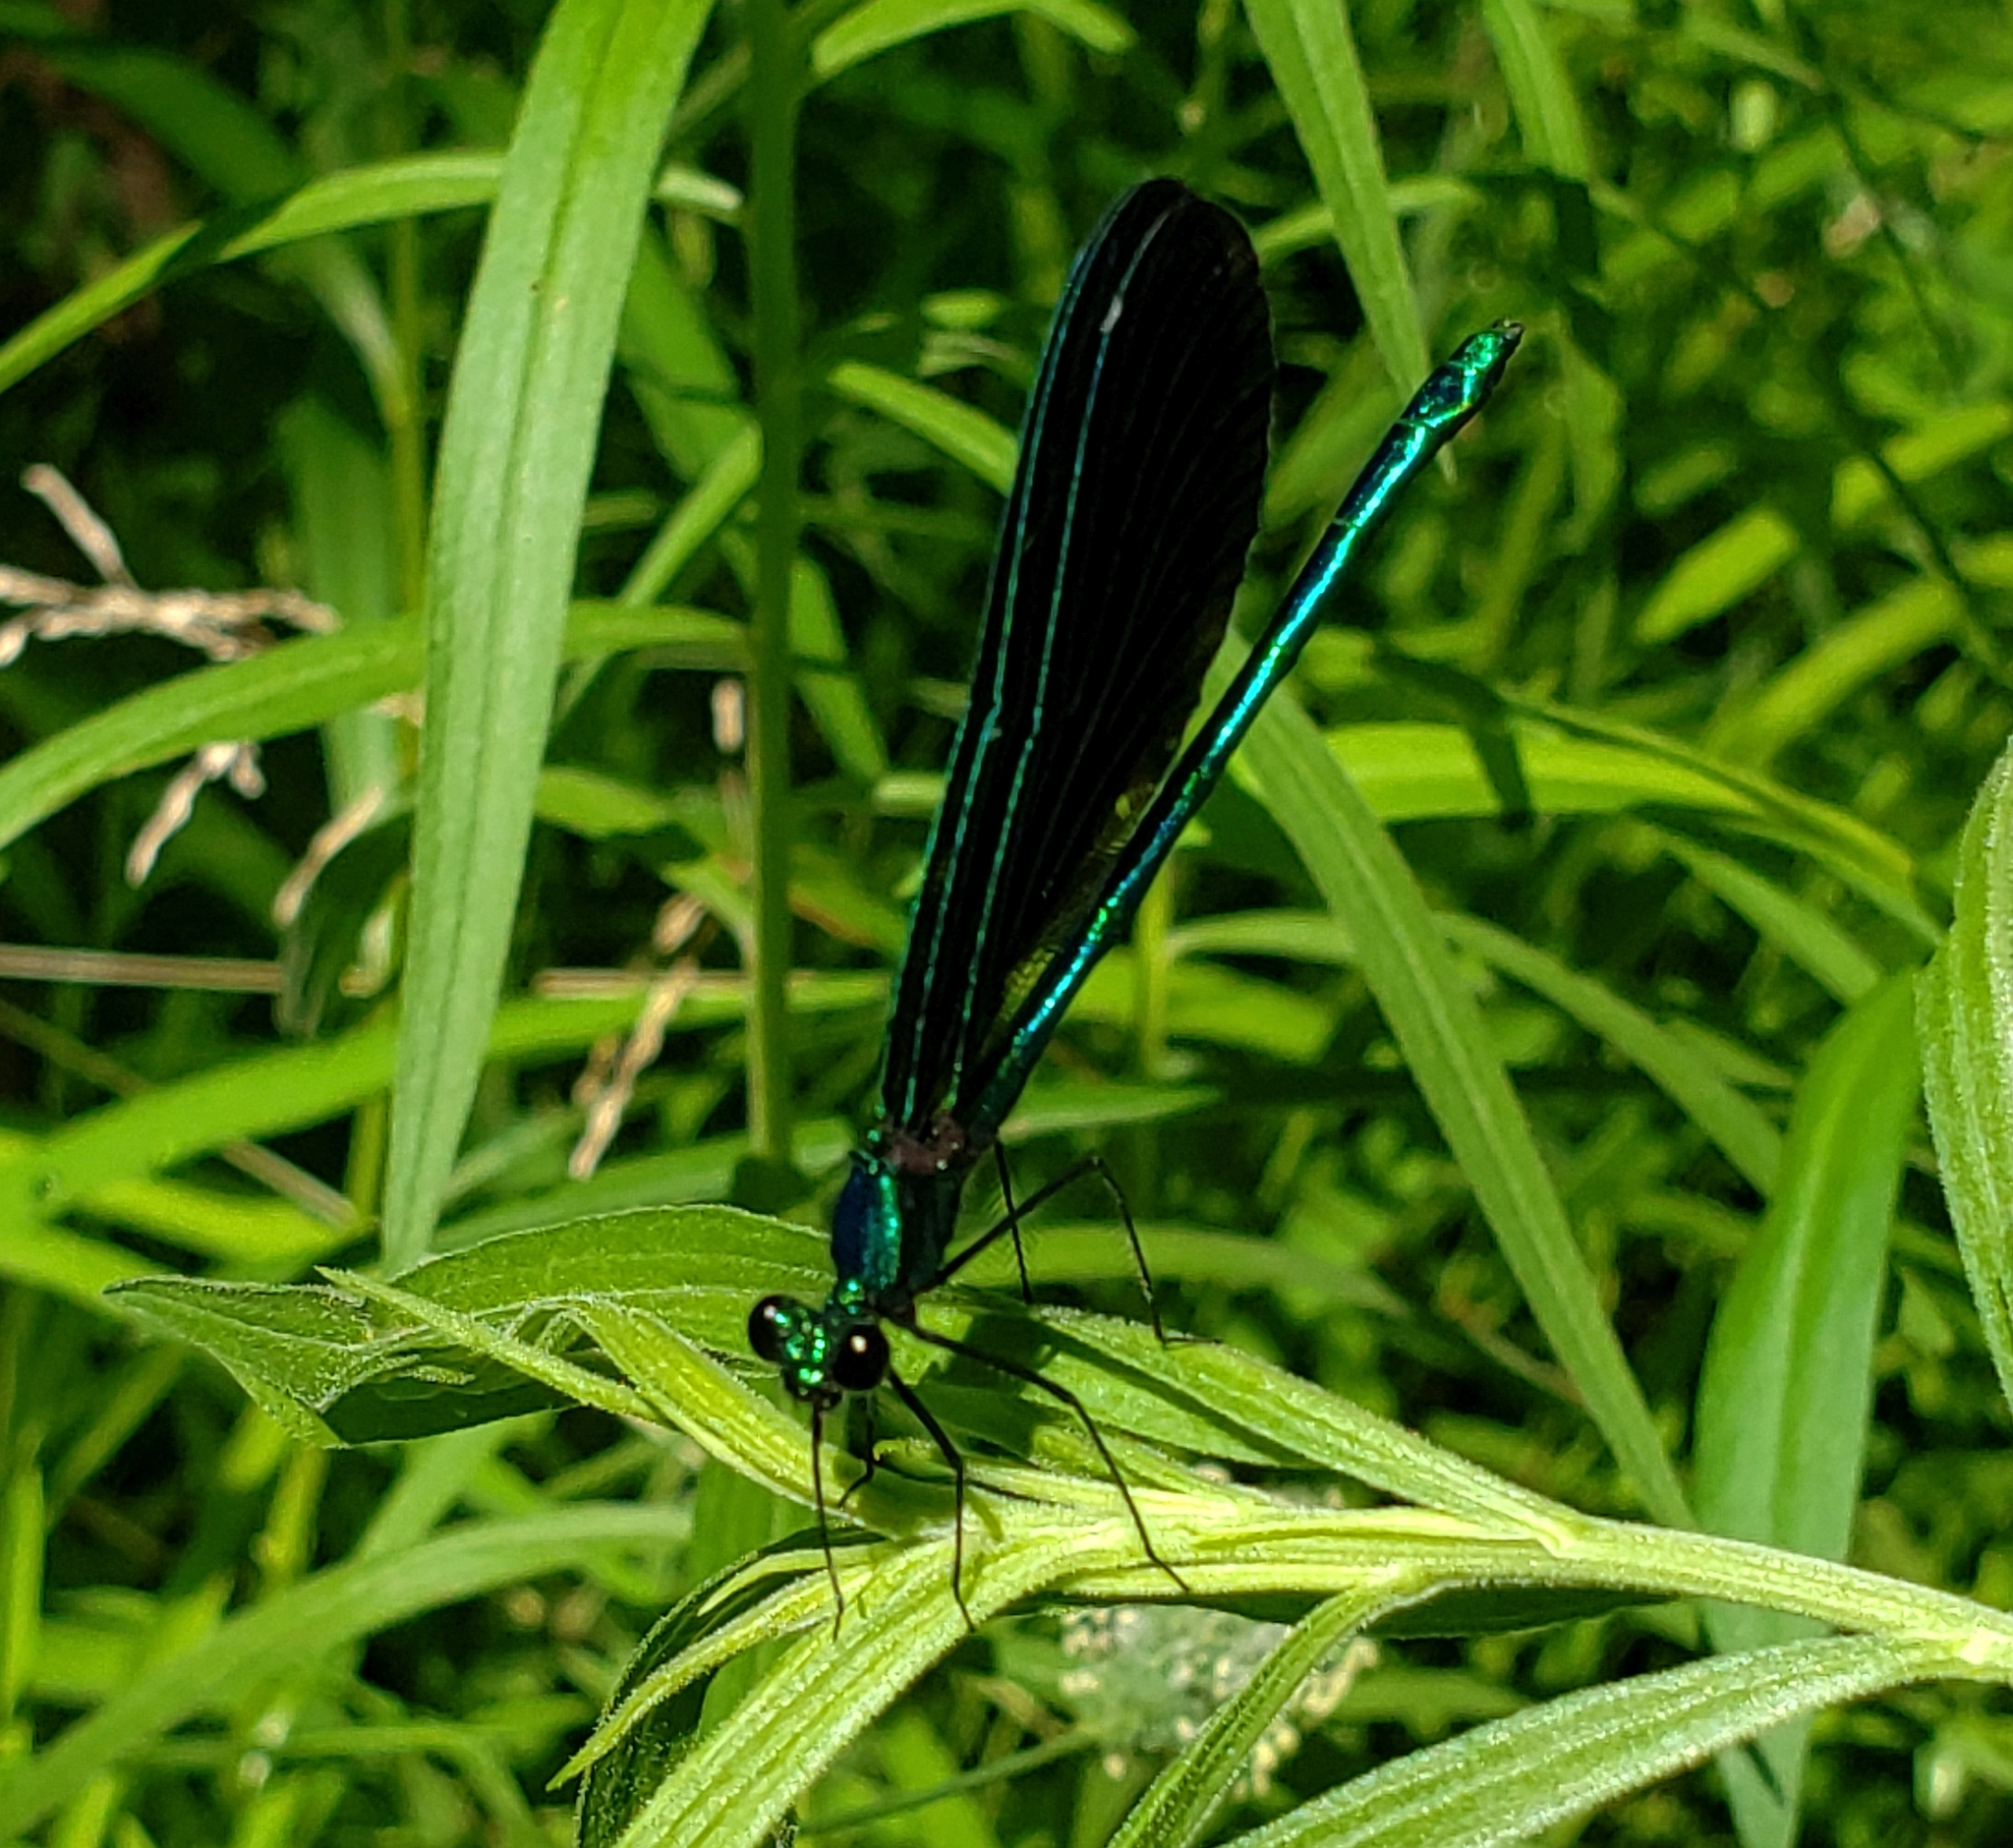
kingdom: Animalia
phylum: Arthropoda
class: Insecta
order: Odonata
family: Calopterygidae
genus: Calopteryx
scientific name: Calopteryx maculata
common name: Ebony jewelwing
